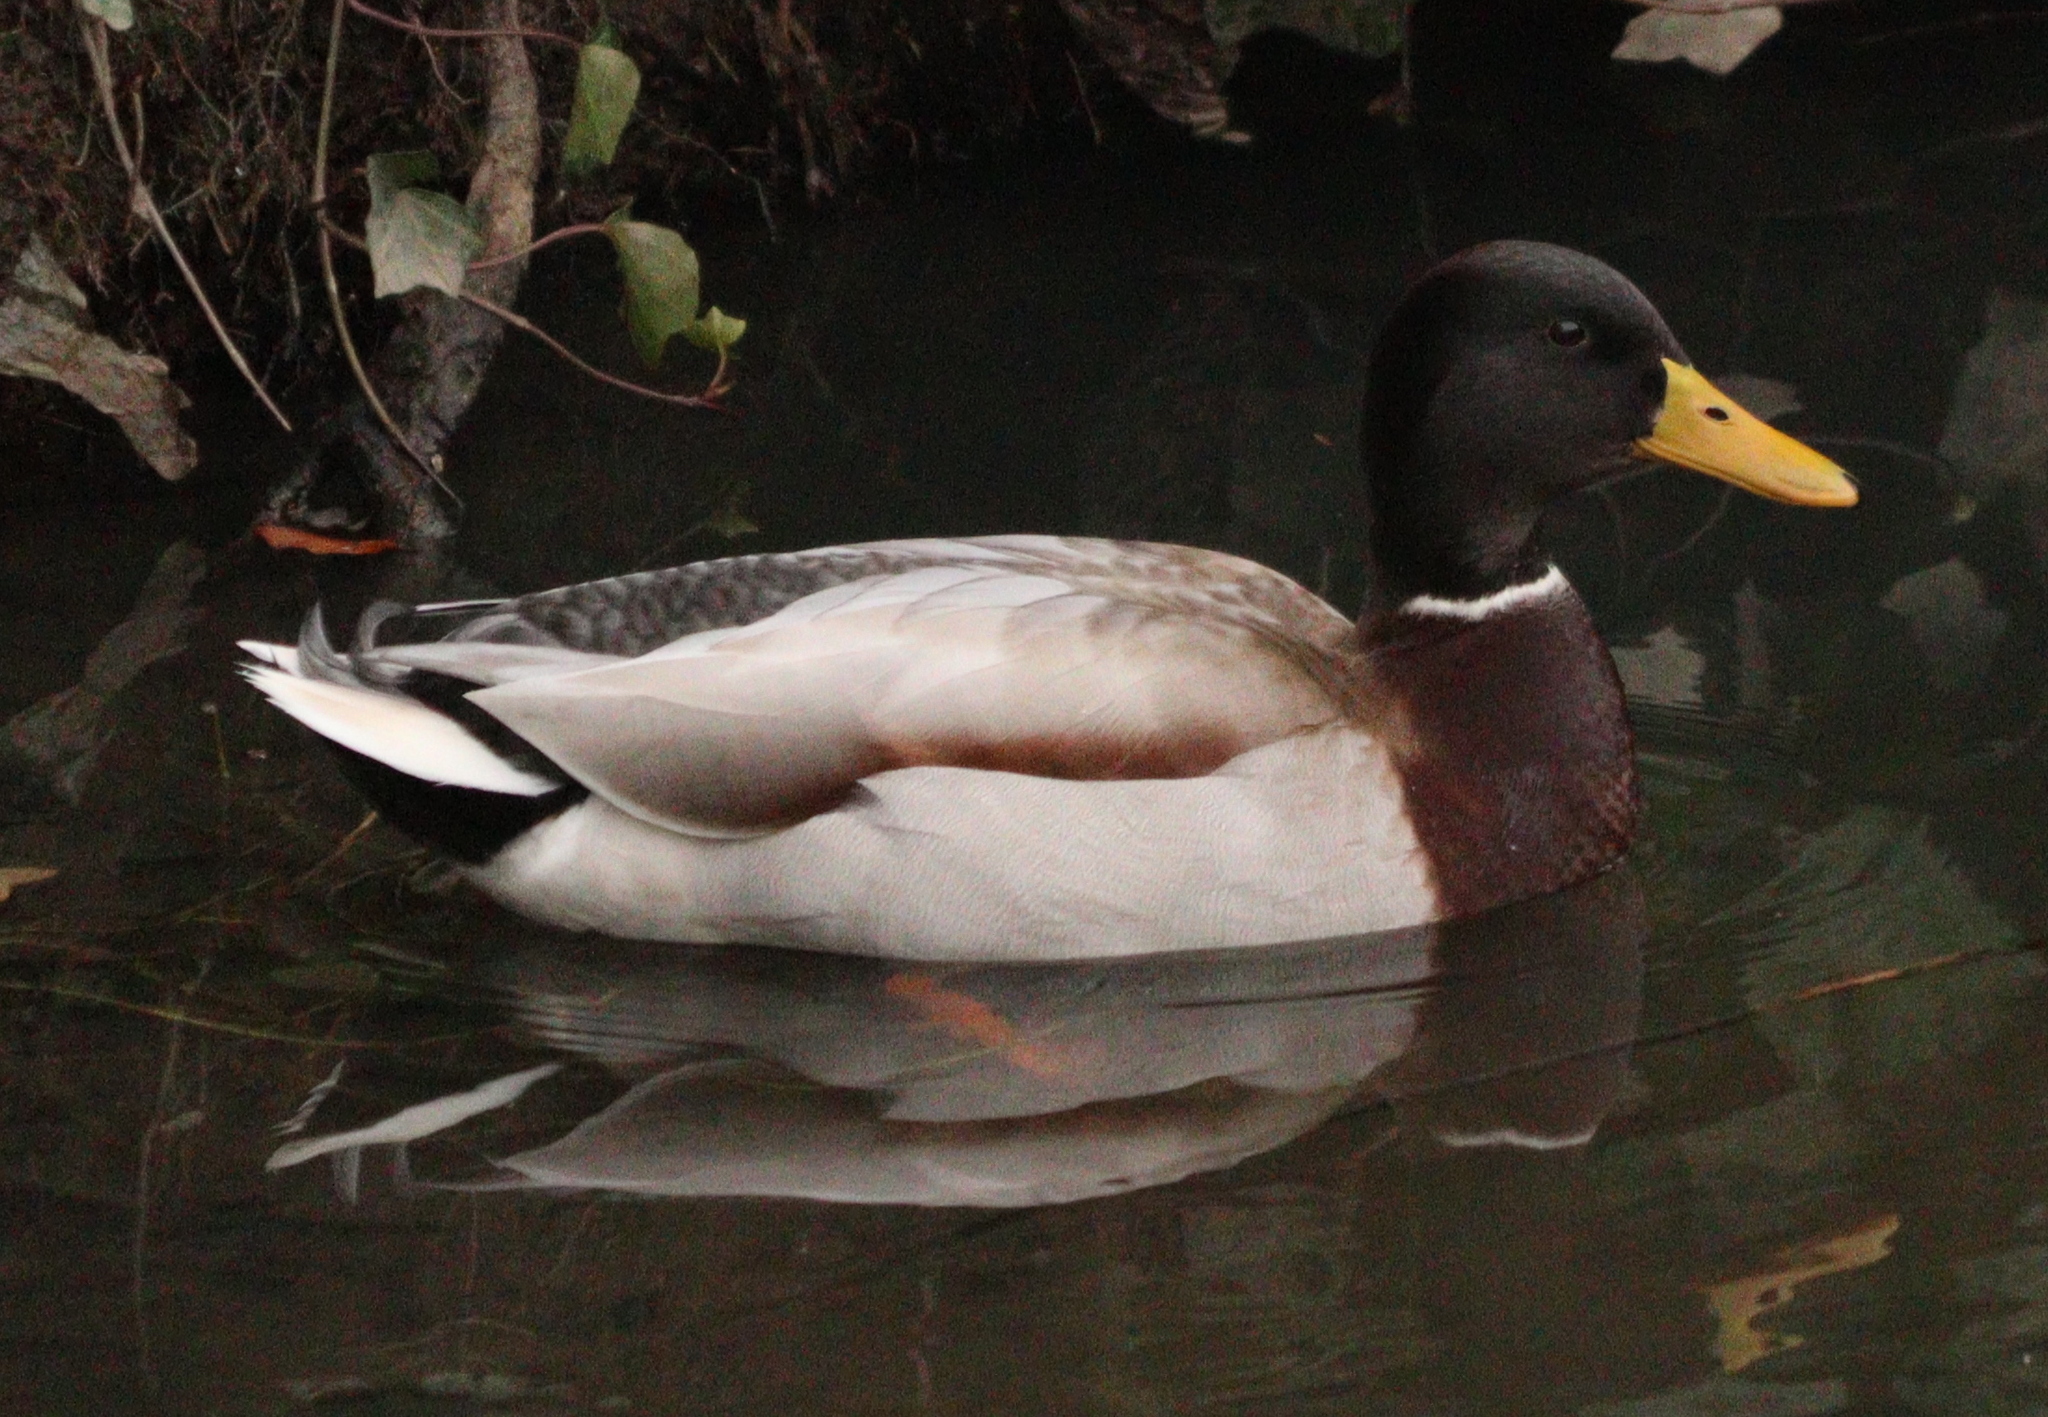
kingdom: Animalia
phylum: Chordata
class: Aves
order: Anseriformes
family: Anatidae
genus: Anas
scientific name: Anas platyrhynchos
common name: Mallard
